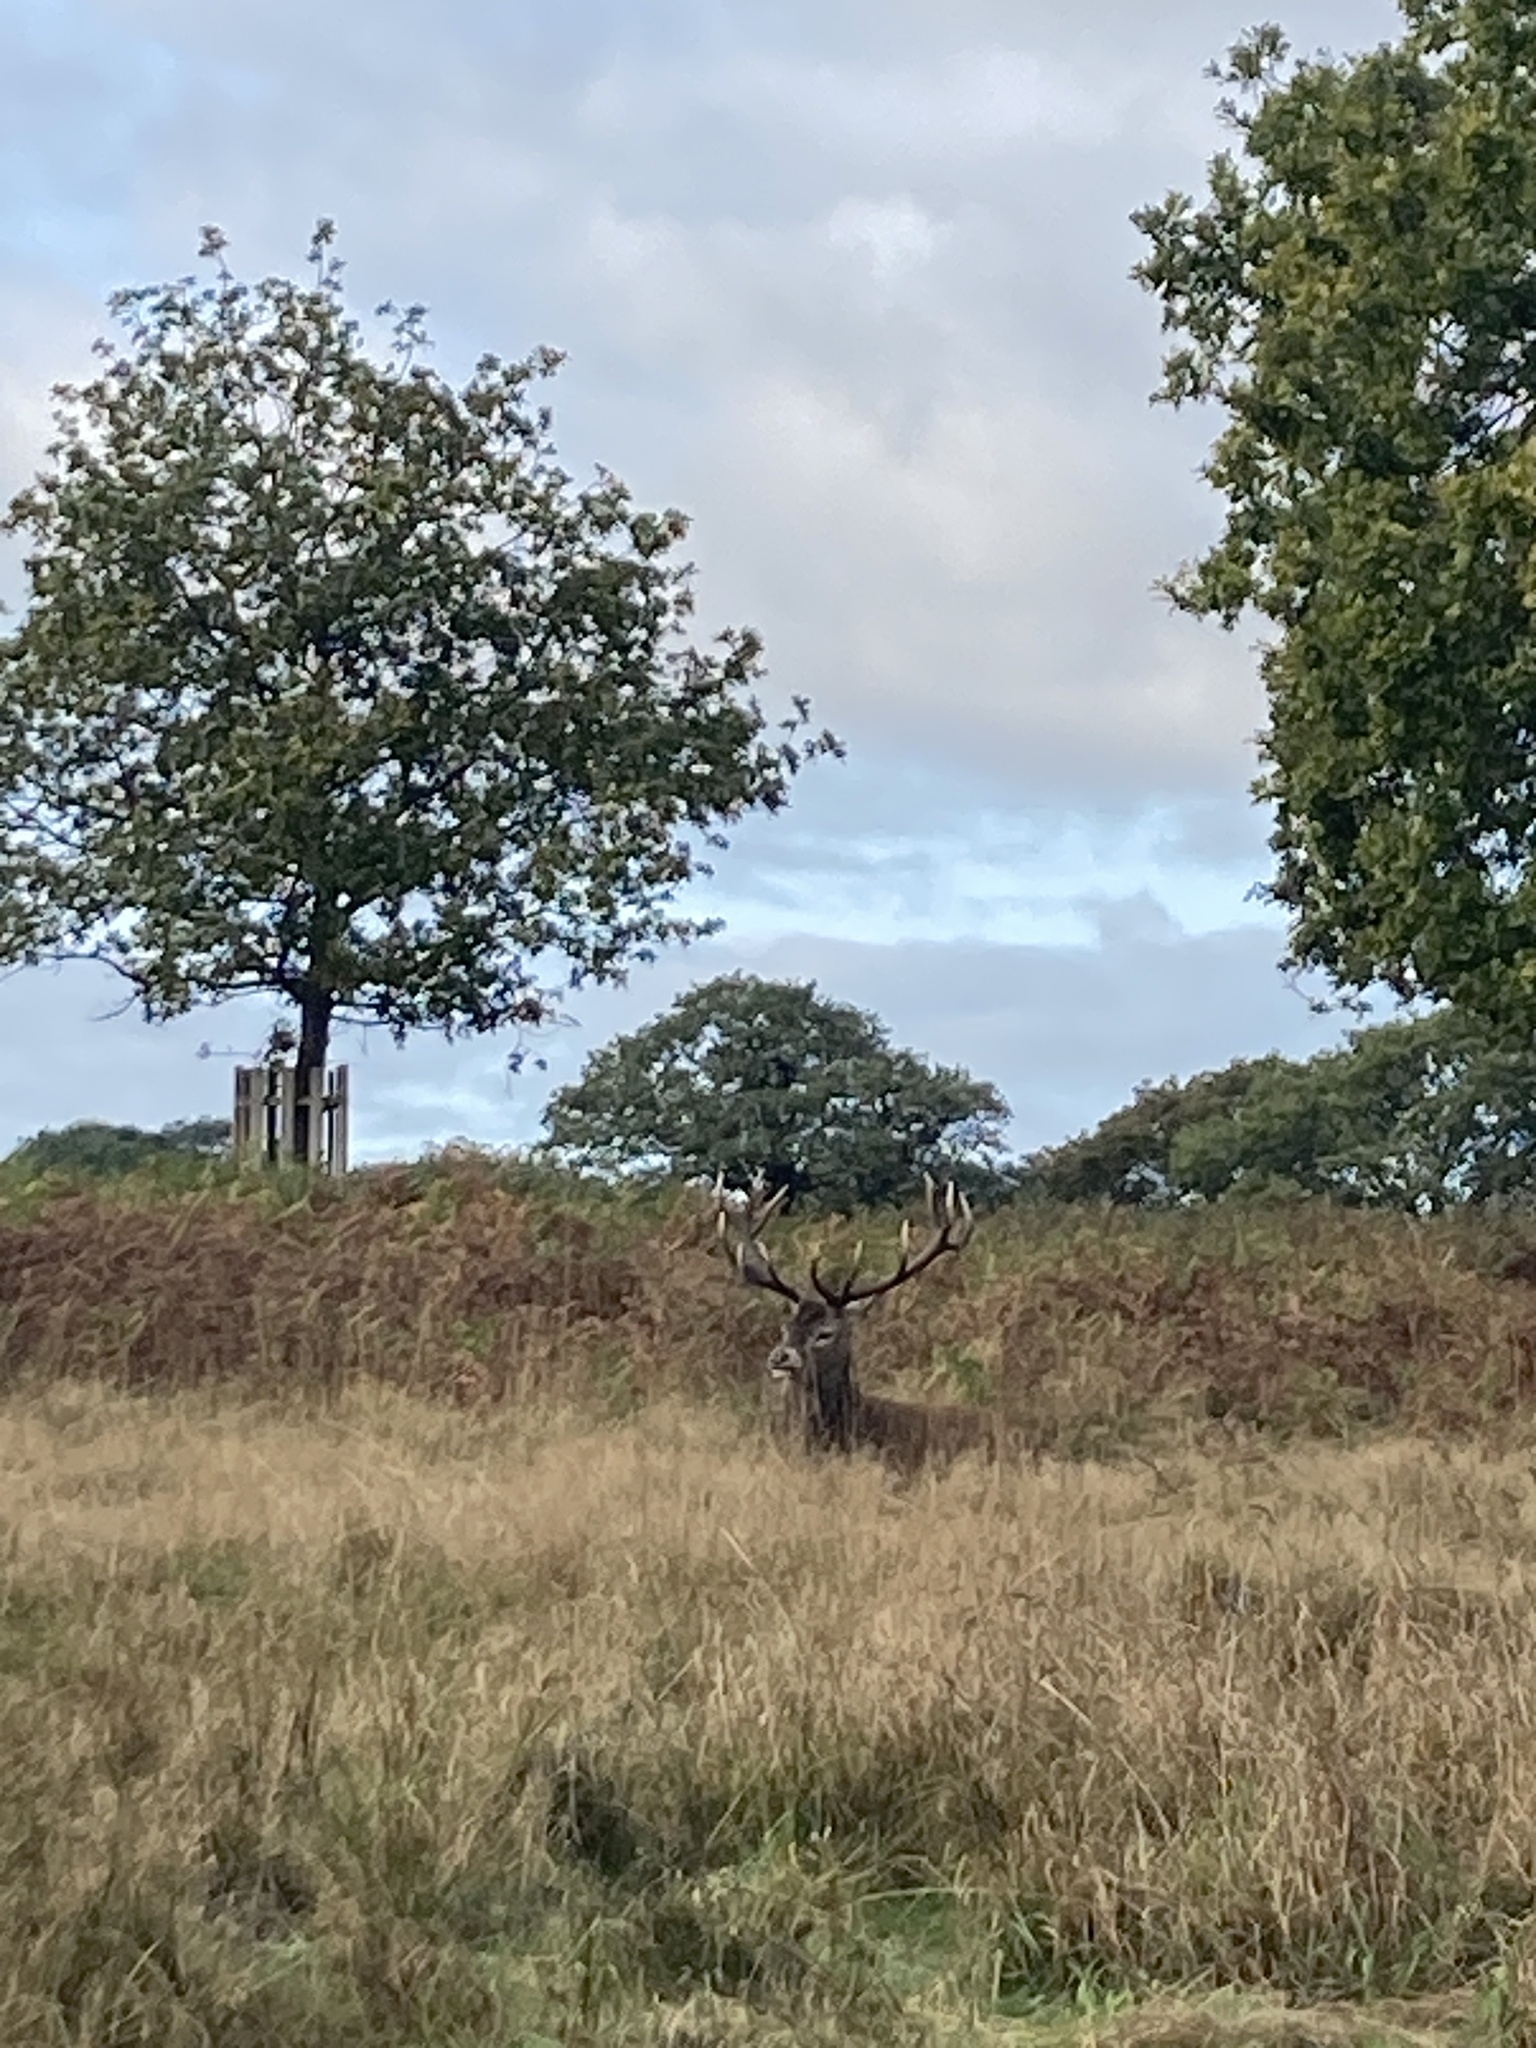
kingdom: Animalia
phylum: Chordata
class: Mammalia
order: Artiodactyla
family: Cervidae
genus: Cervus
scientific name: Cervus elaphus
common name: Red deer
